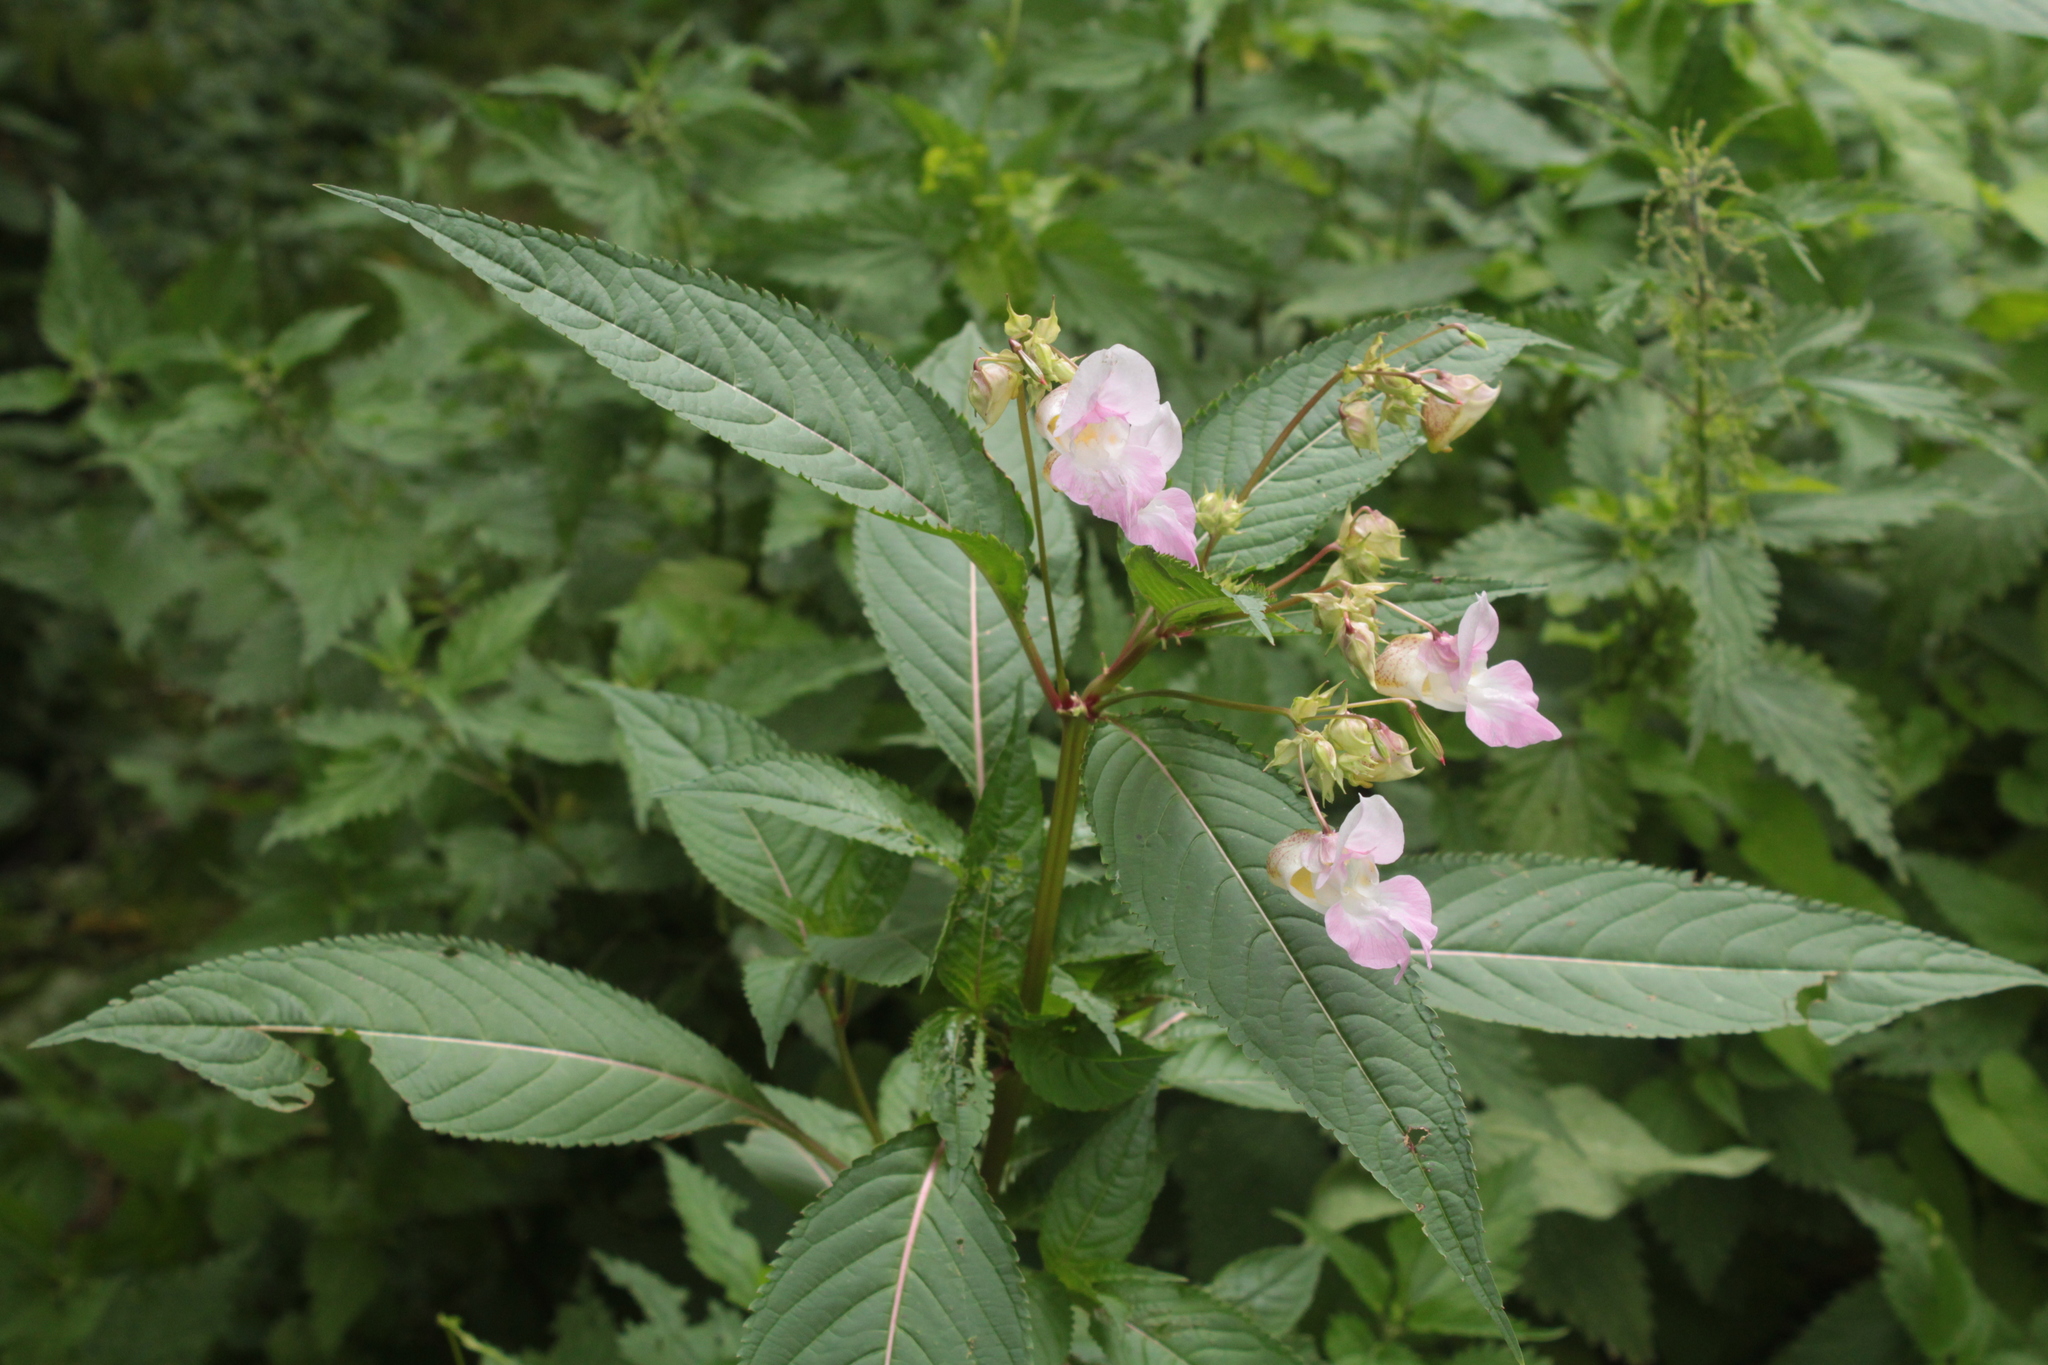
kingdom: Plantae
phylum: Tracheophyta
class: Magnoliopsida
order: Ericales
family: Balsaminaceae
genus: Impatiens
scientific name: Impatiens glandulifera
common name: Himalayan balsam
